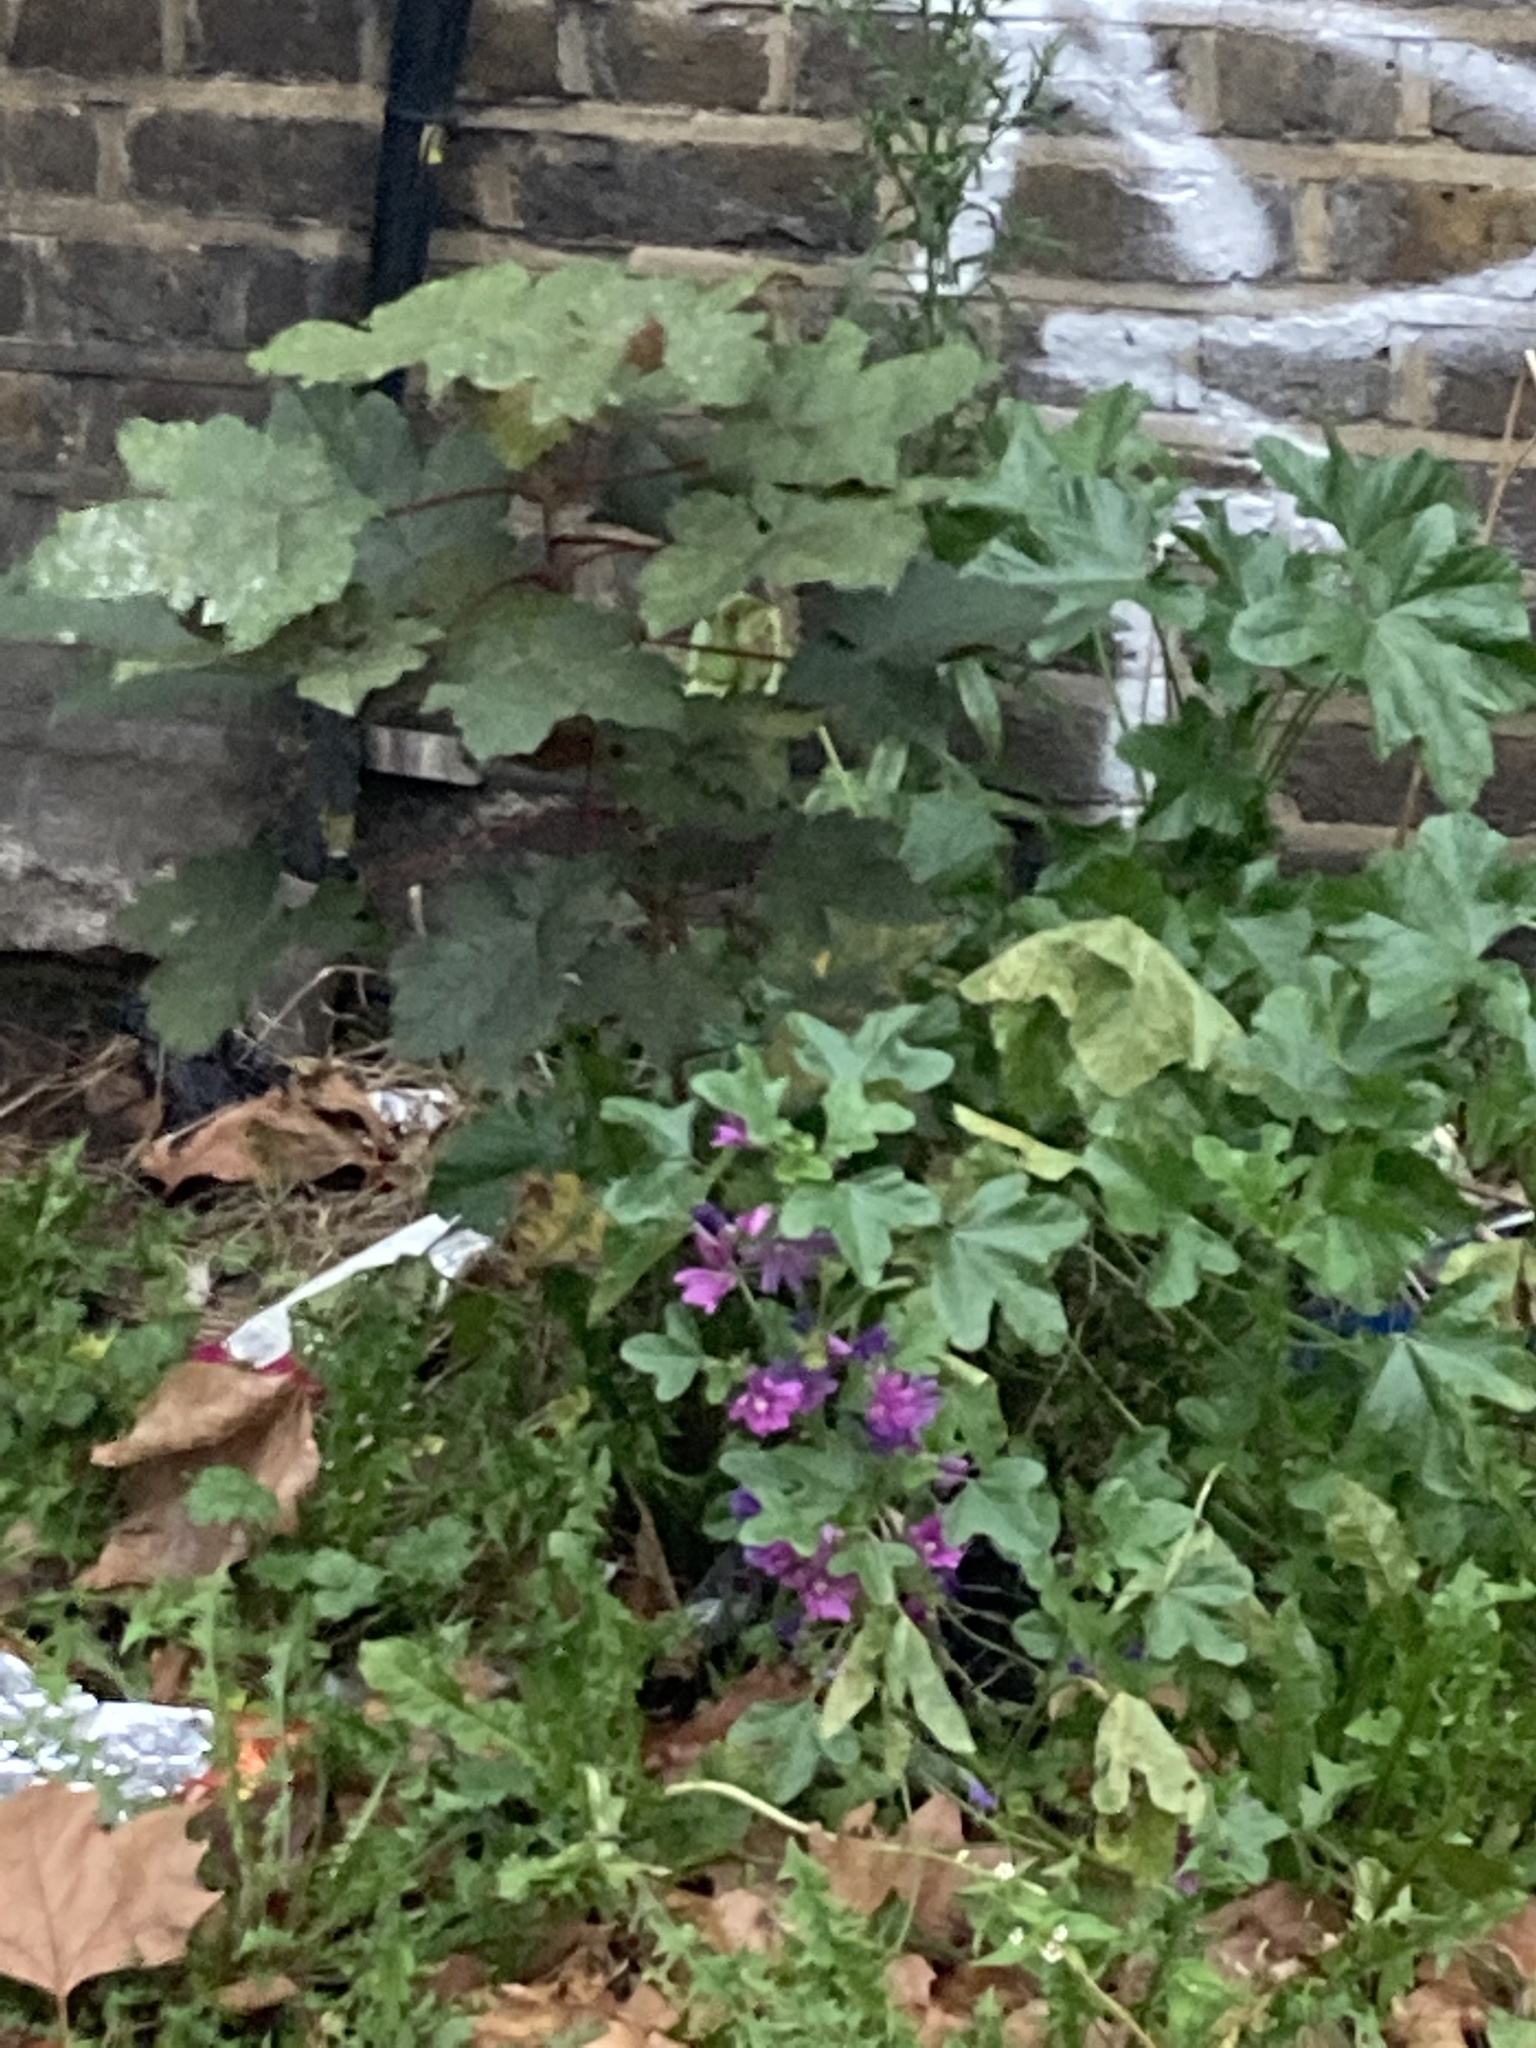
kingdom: Plantae
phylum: Tracheophyta
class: Magnoliopsida
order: Malvales
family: Malvaceae
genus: Malva
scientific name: Malva sylvestris
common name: Common mallow
